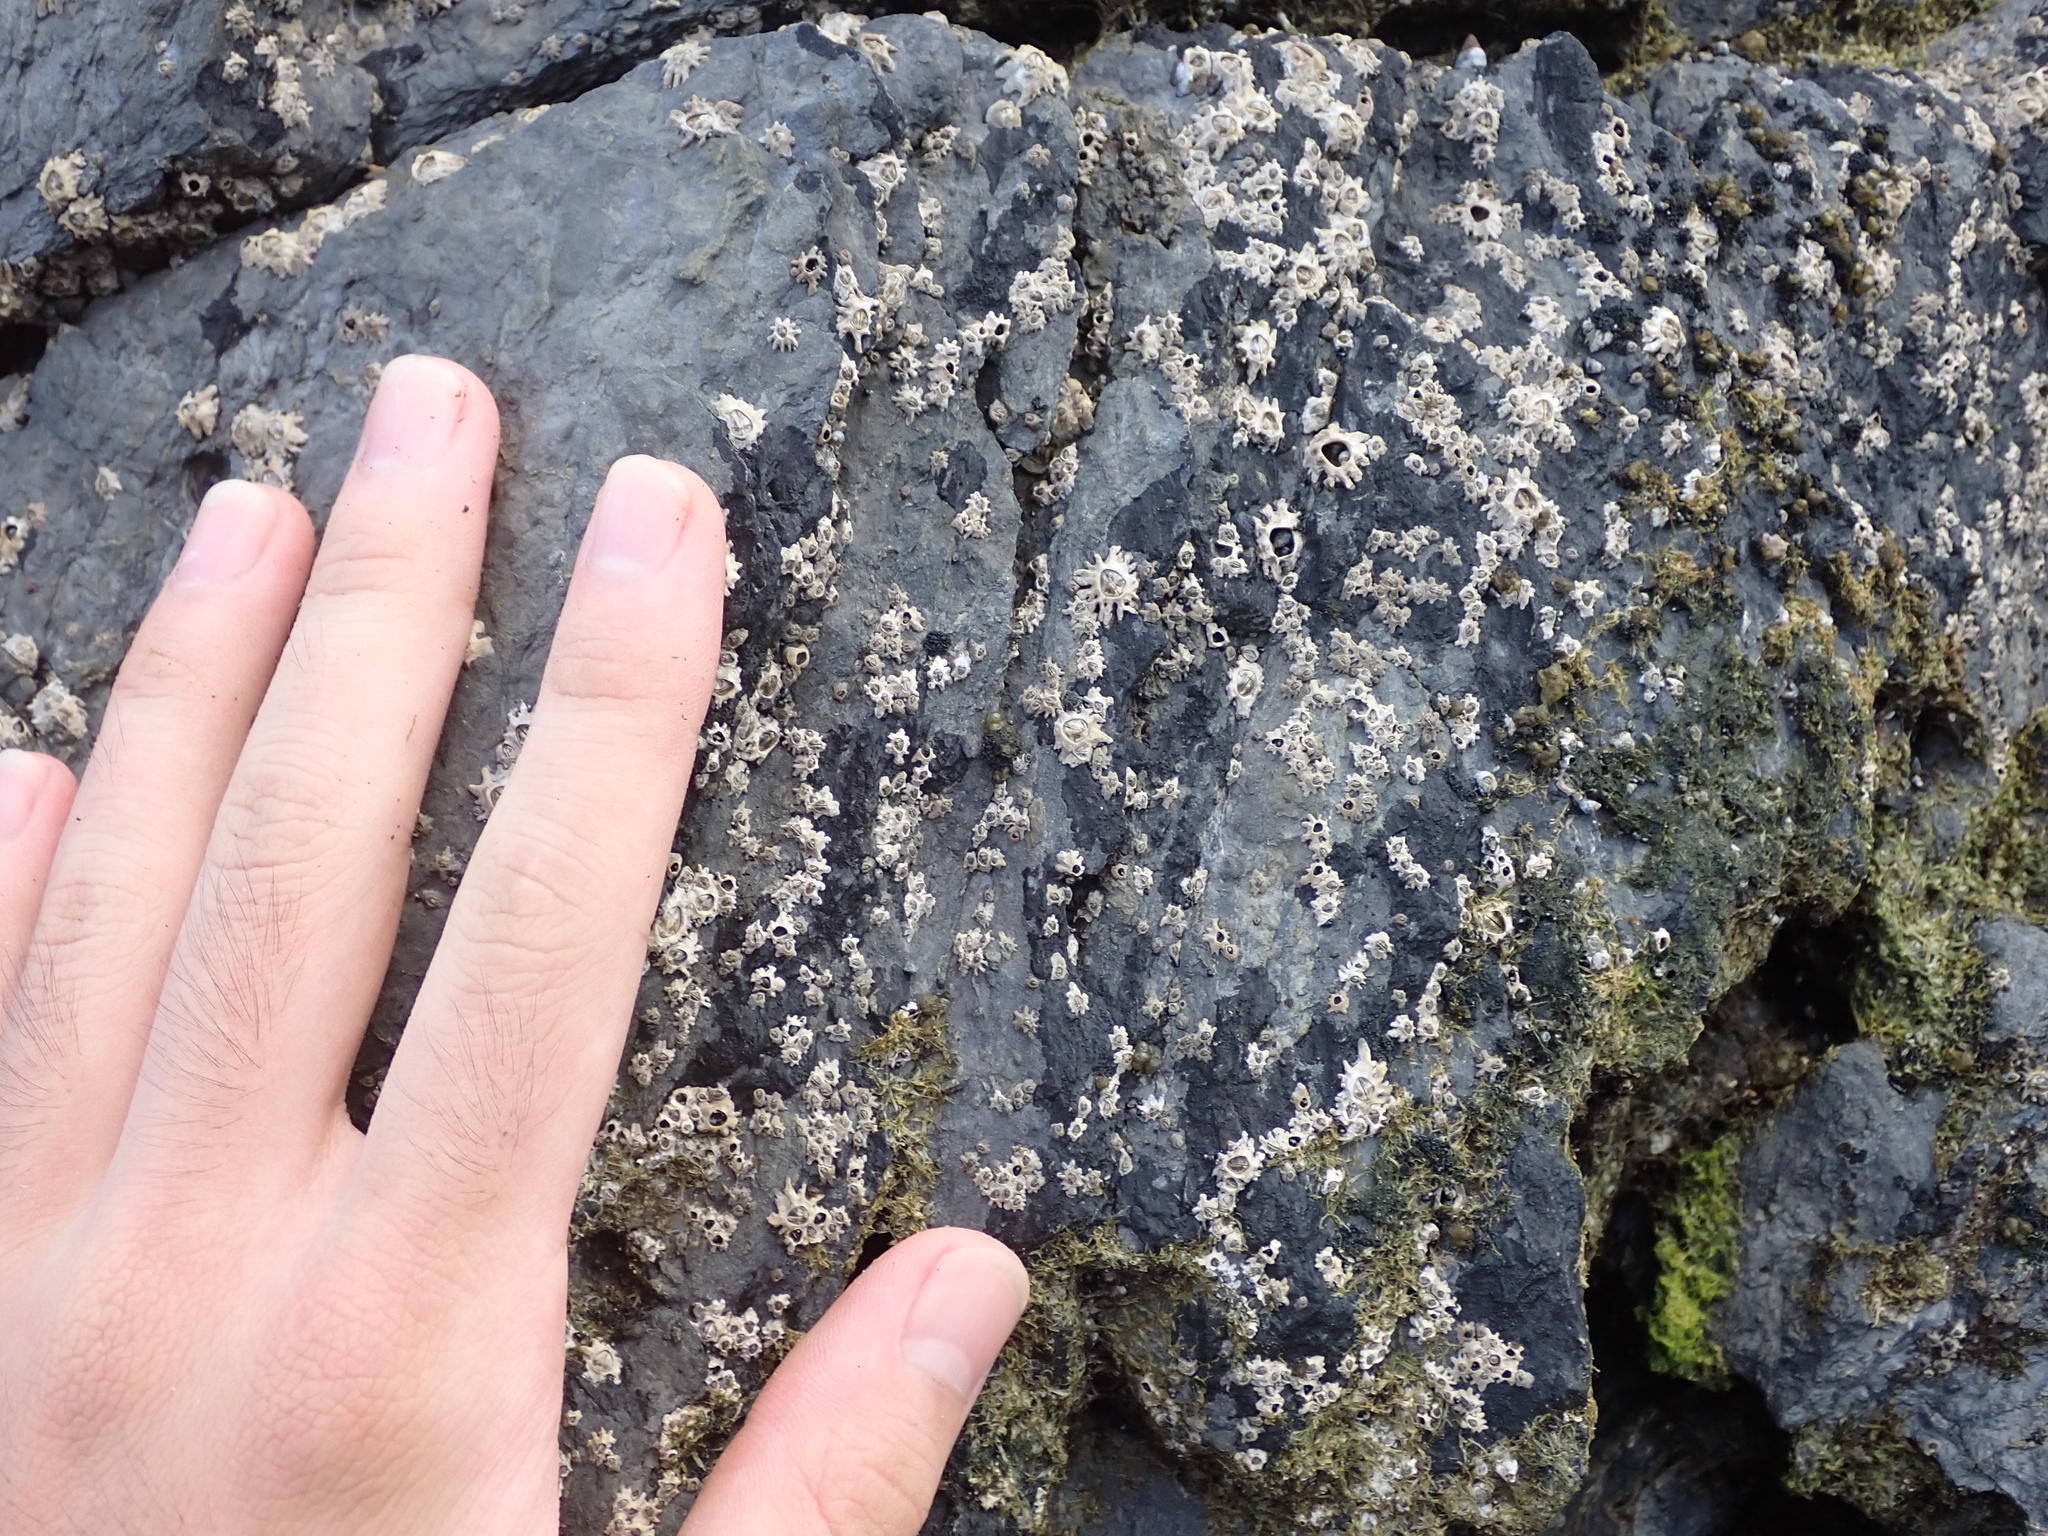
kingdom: Animalia
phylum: Arthropoda
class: Maxillopoda
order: Sessilia
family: Chthamalidae
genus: Chamaesipho
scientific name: Chamaesipho brunnea
